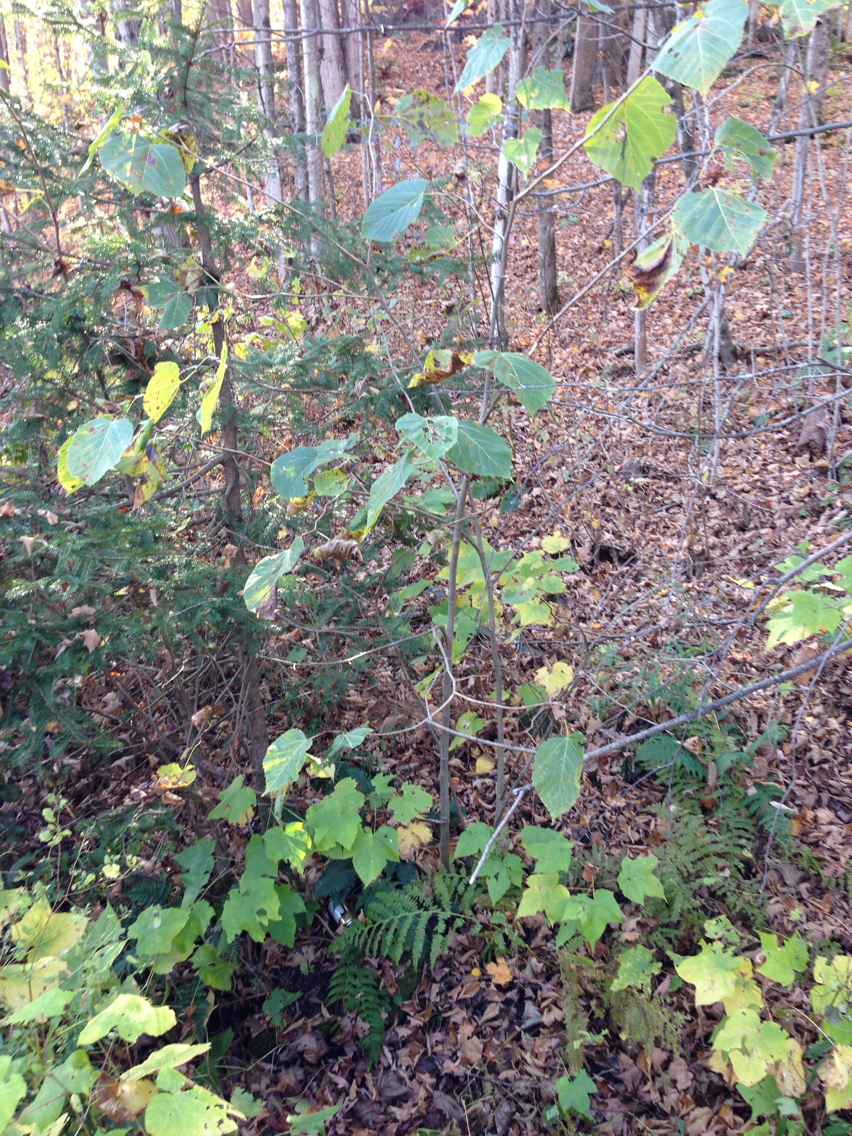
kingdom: Plantae
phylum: Tracheophyta
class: Magnoliopsida
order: Malvales
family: Malvaceae
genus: Tilia
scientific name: Tilia americana
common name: Basswood
